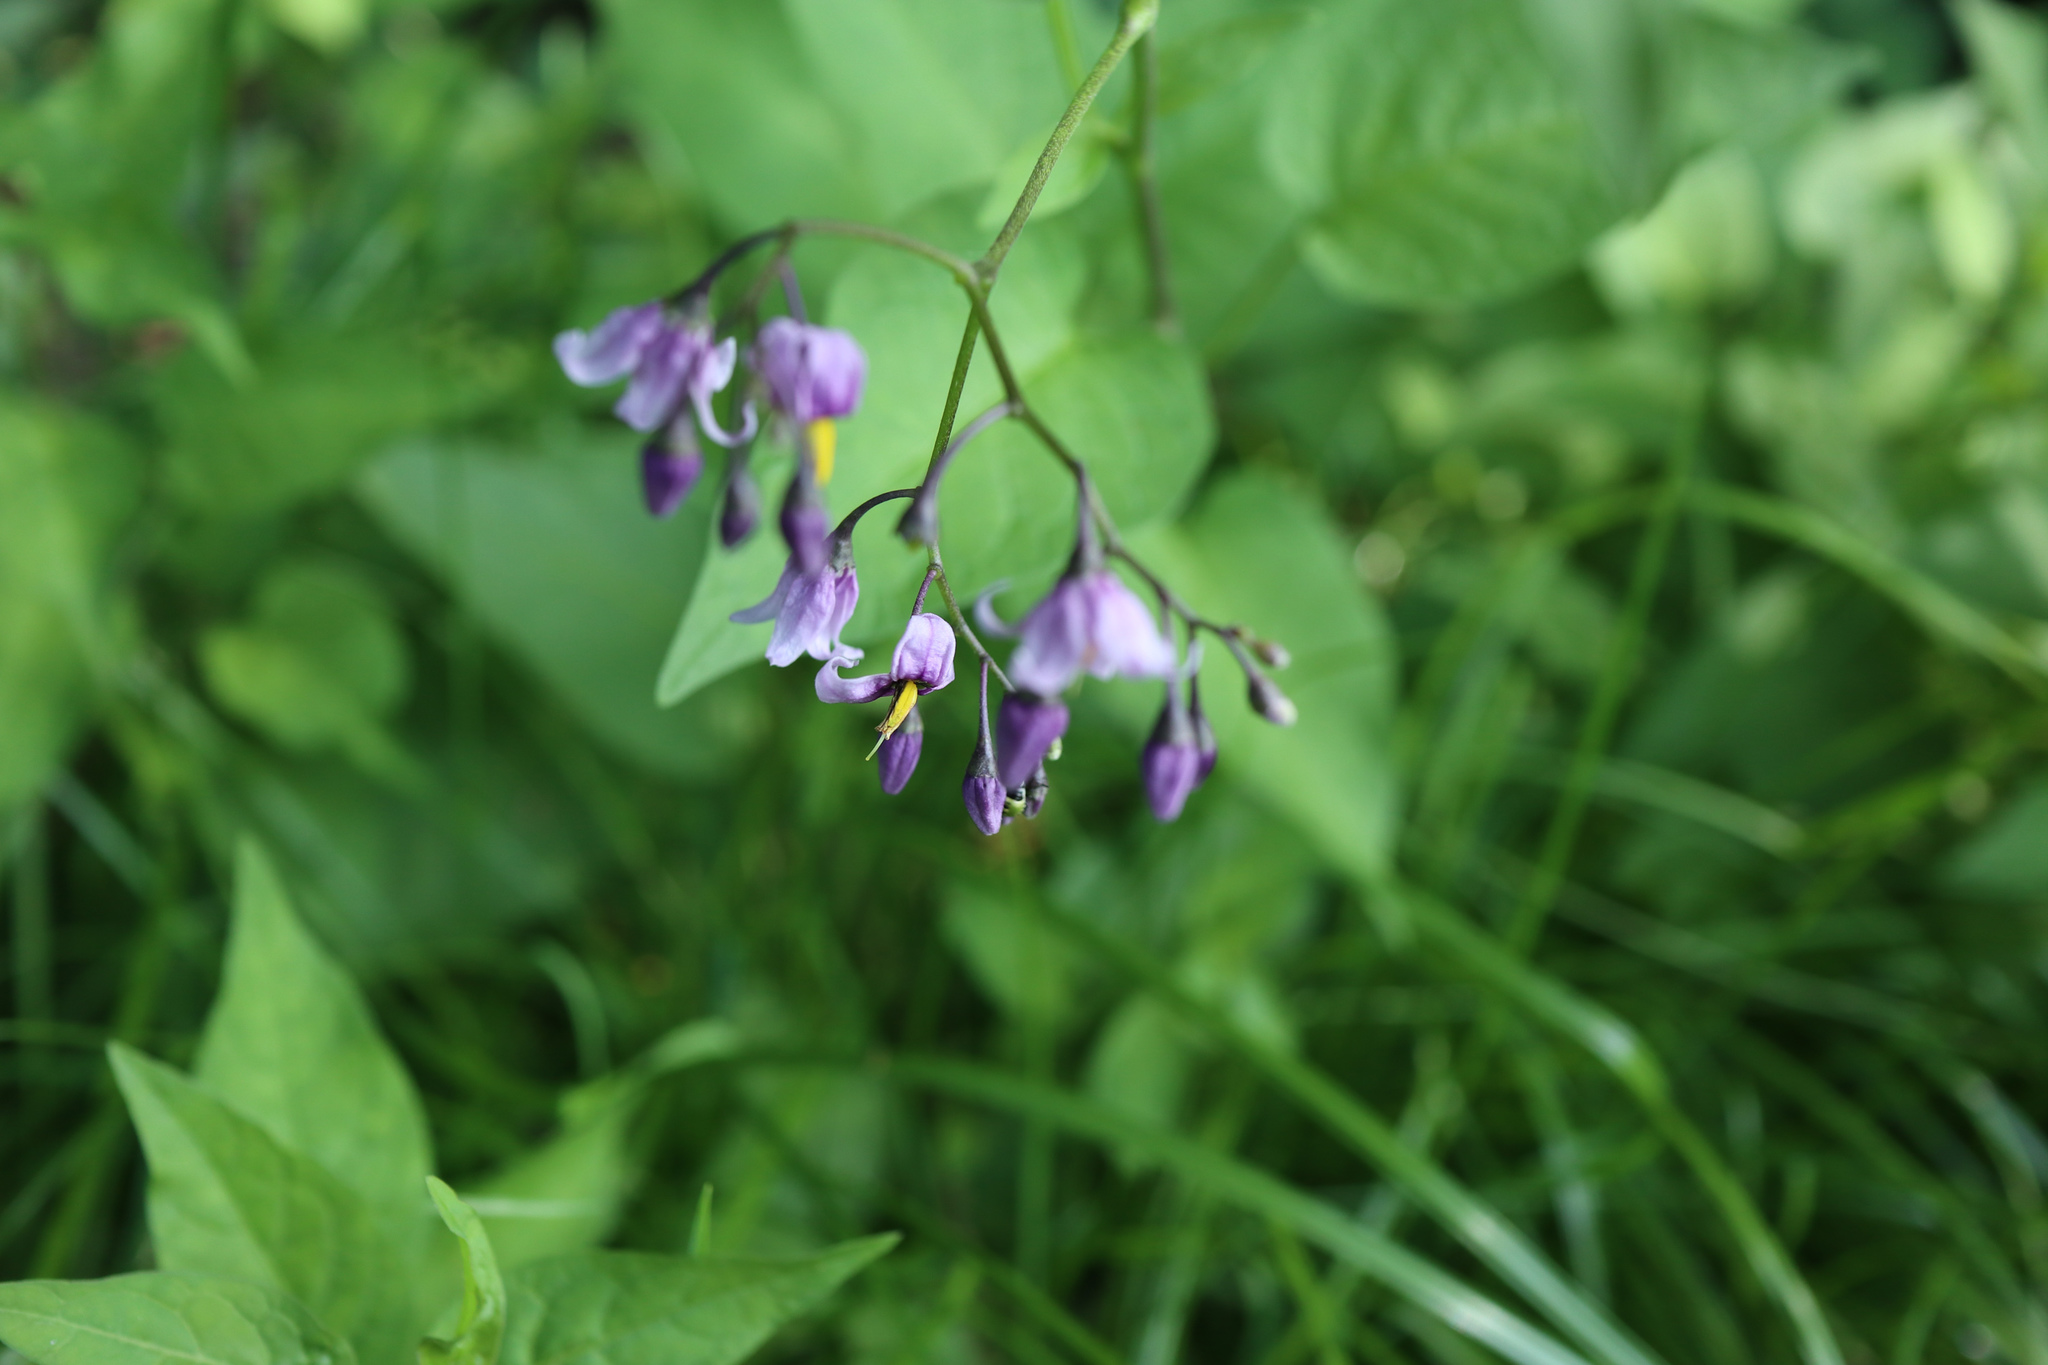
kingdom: Plantae
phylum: Tracheophyta
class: Magnoliopsida
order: Solanales
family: Solanaceae
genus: Solanum
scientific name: Solanum dulcamara
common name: Climbing nightshade
